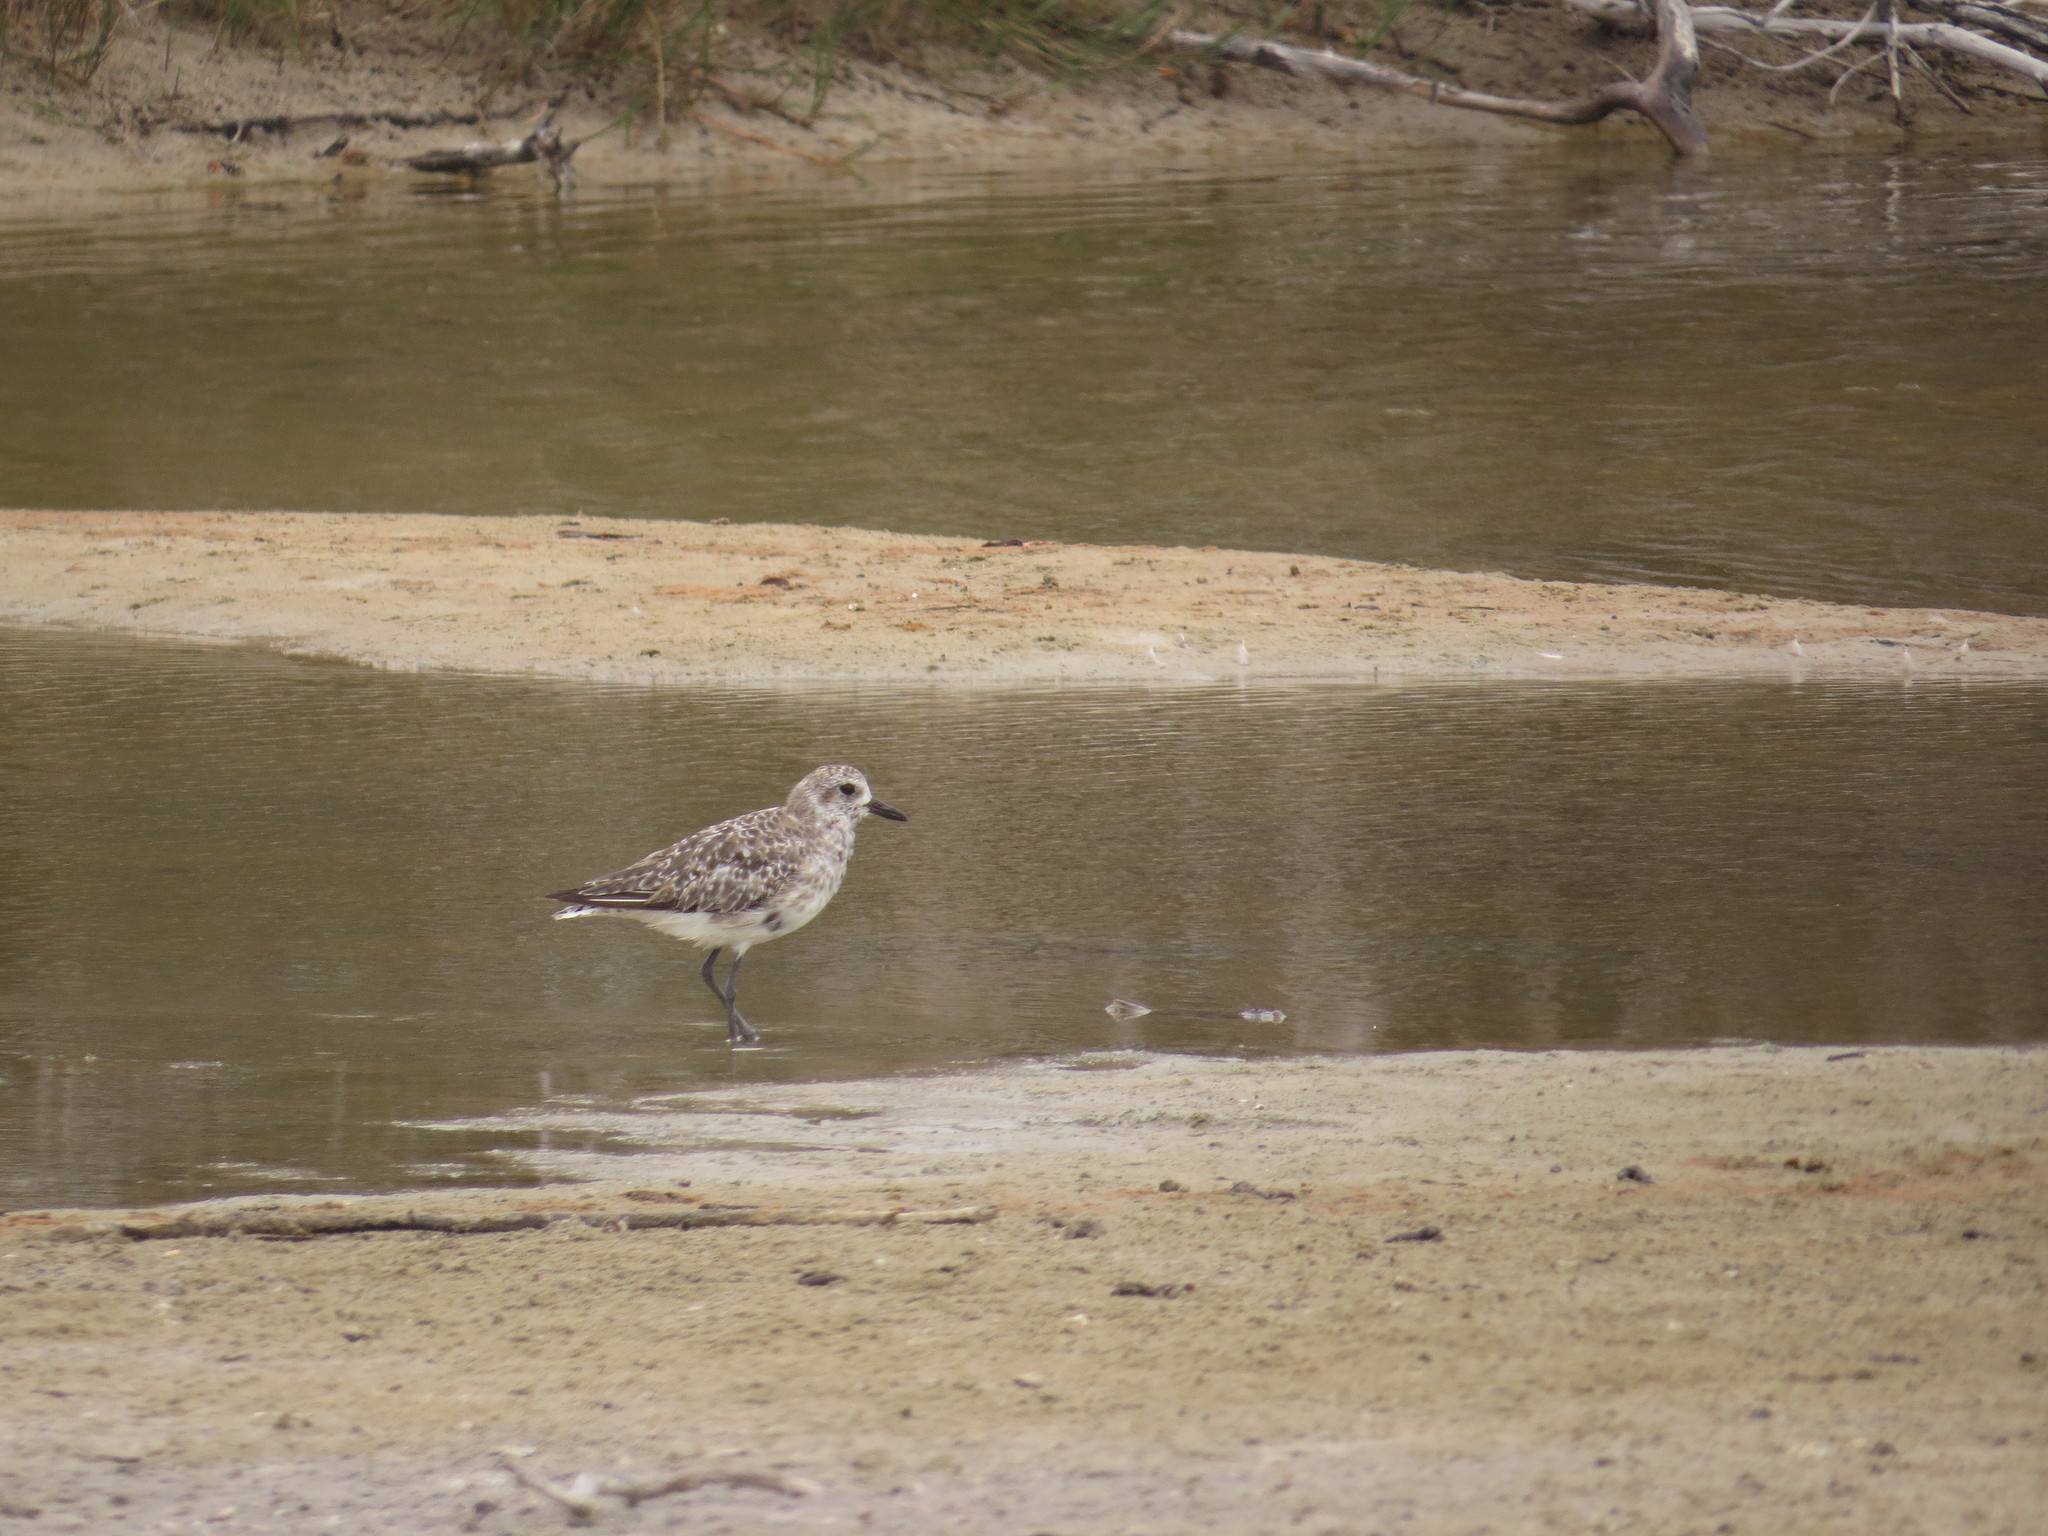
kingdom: Animalia
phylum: Chordata
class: Aves
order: Charadriiformes
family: Charadriidae
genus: Pluvialis
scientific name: Pluvialis squatarola
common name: Grey plover
